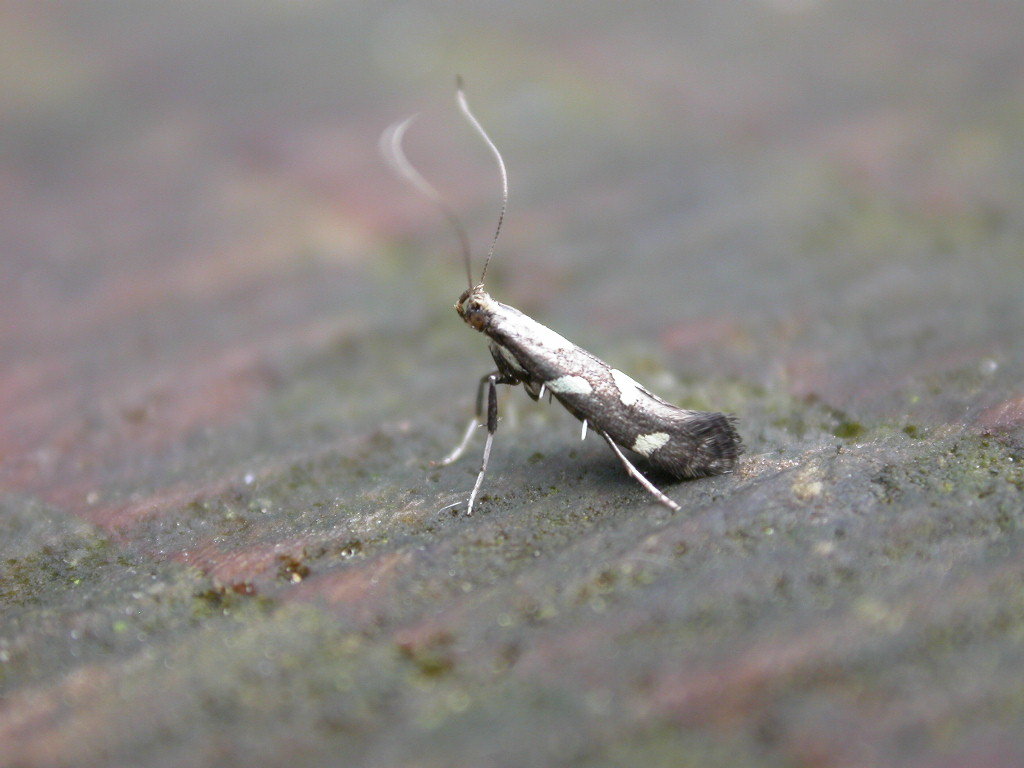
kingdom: Animalia
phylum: Arthropoda
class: Insecta
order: Lepidoptera
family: Gracillariidae
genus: Calybites
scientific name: Calybites phasianipennella
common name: Little slender
